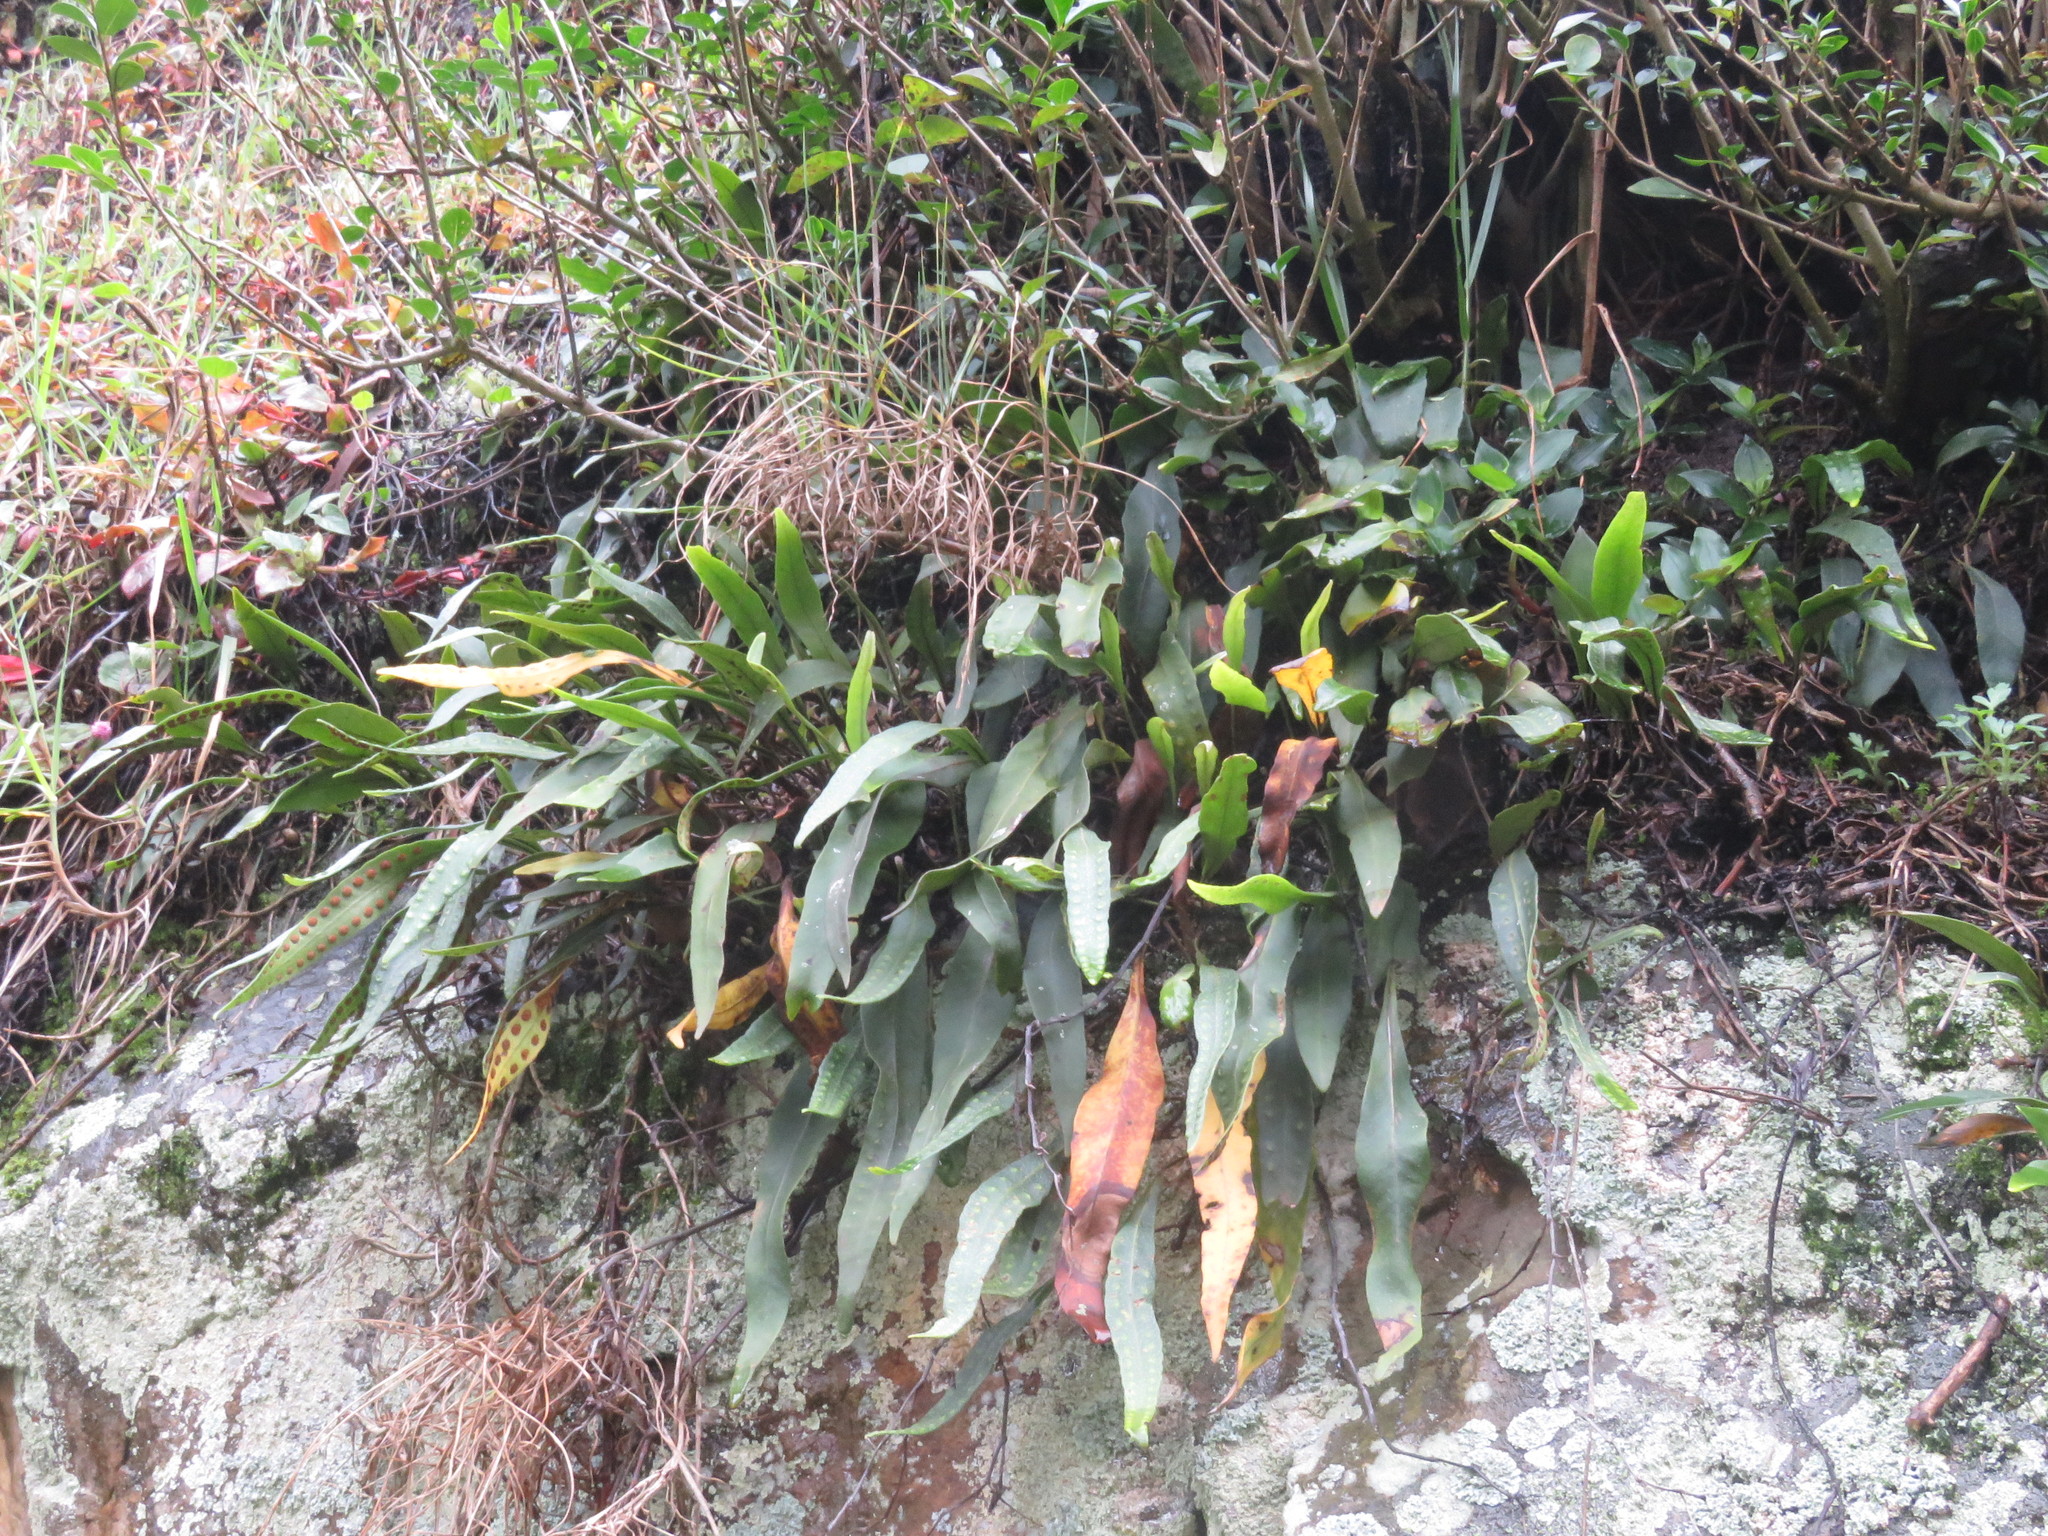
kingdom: Plantae
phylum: Tracheophyta
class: Polypodiopsida
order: Polypodiales
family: Polypodiaceae
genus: Pleopeltis
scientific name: Pleopeltis macrocarpa
